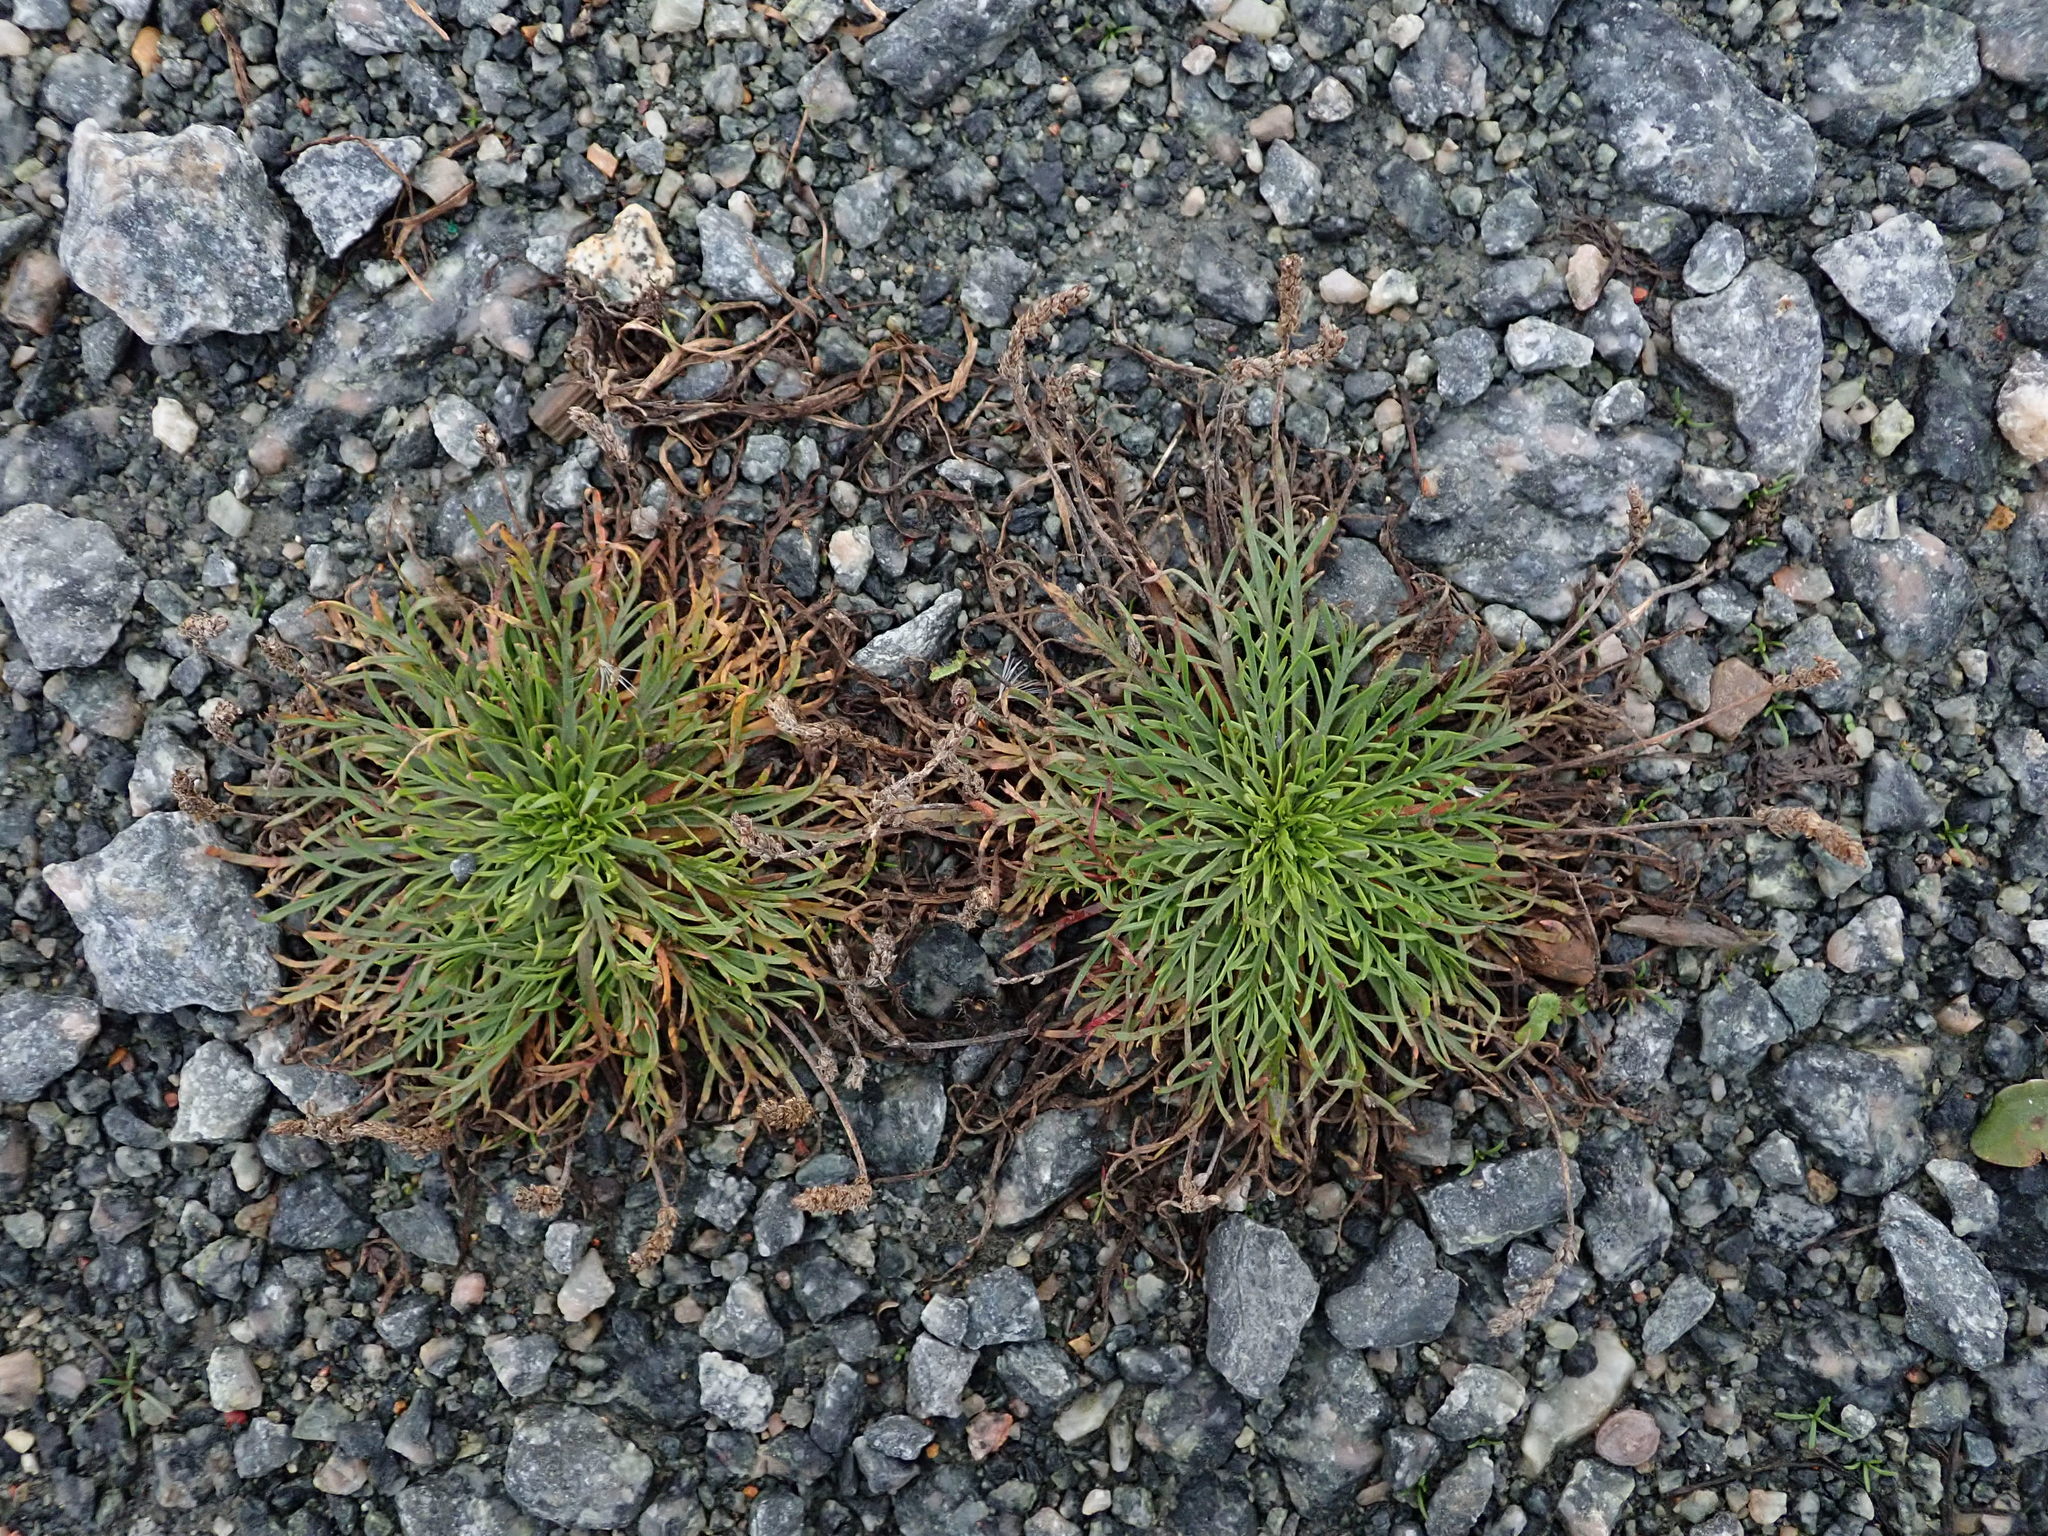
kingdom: Plantae
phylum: Tracheophyta
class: Magnoliopsida
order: Lamiales
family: Plantaginaceae
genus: Plantago
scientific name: Plantago coronopus
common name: Buck's-horn plantain
